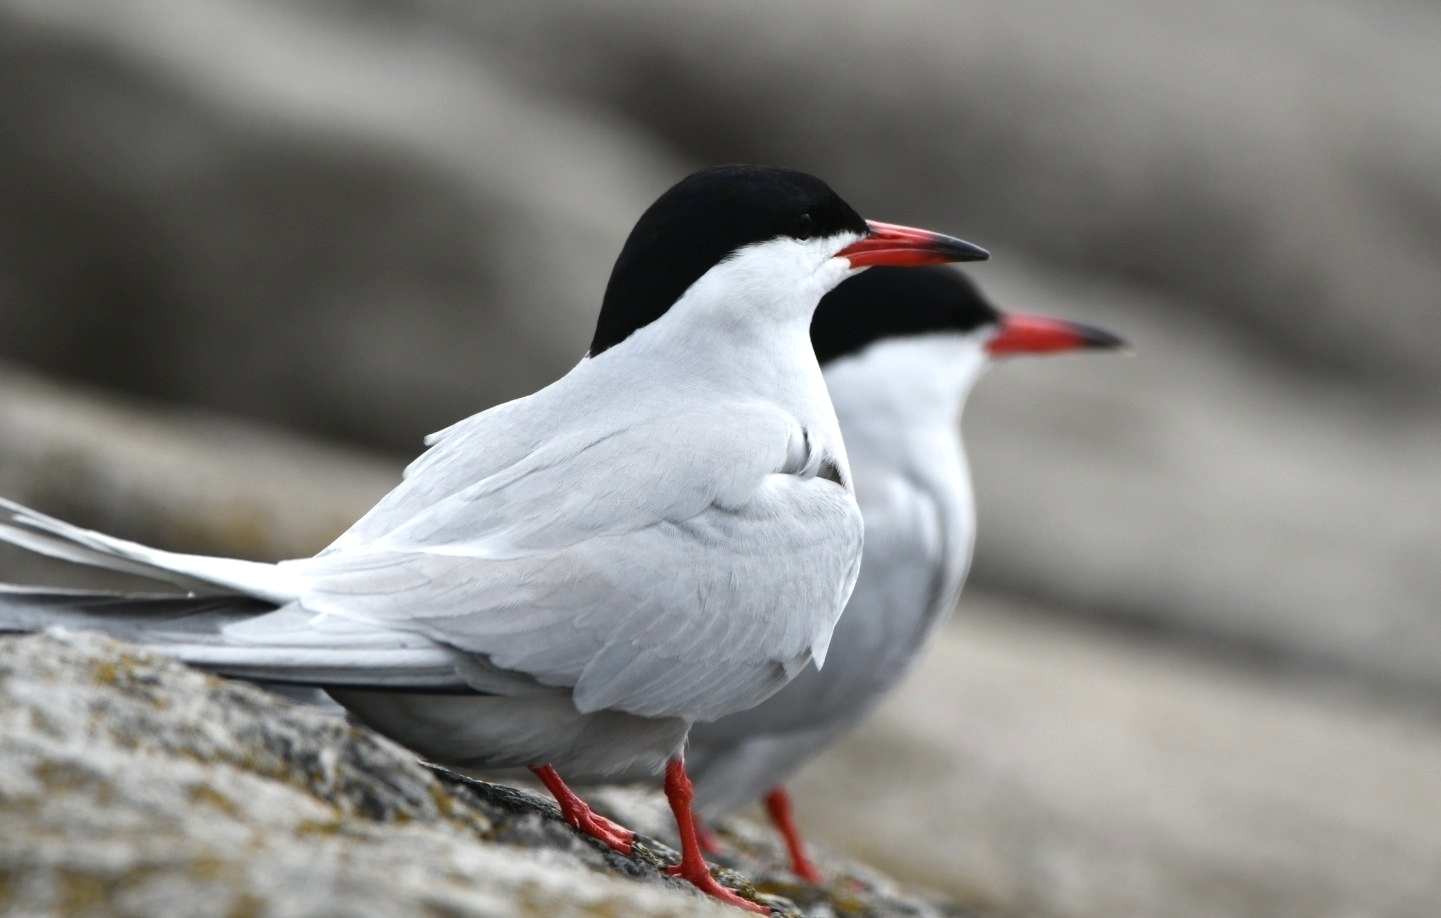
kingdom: Animalia
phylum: Chordata
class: Aves
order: Charadriiformes
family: Laridae
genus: Sterna
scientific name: Sterna hirundo
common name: Common tern
